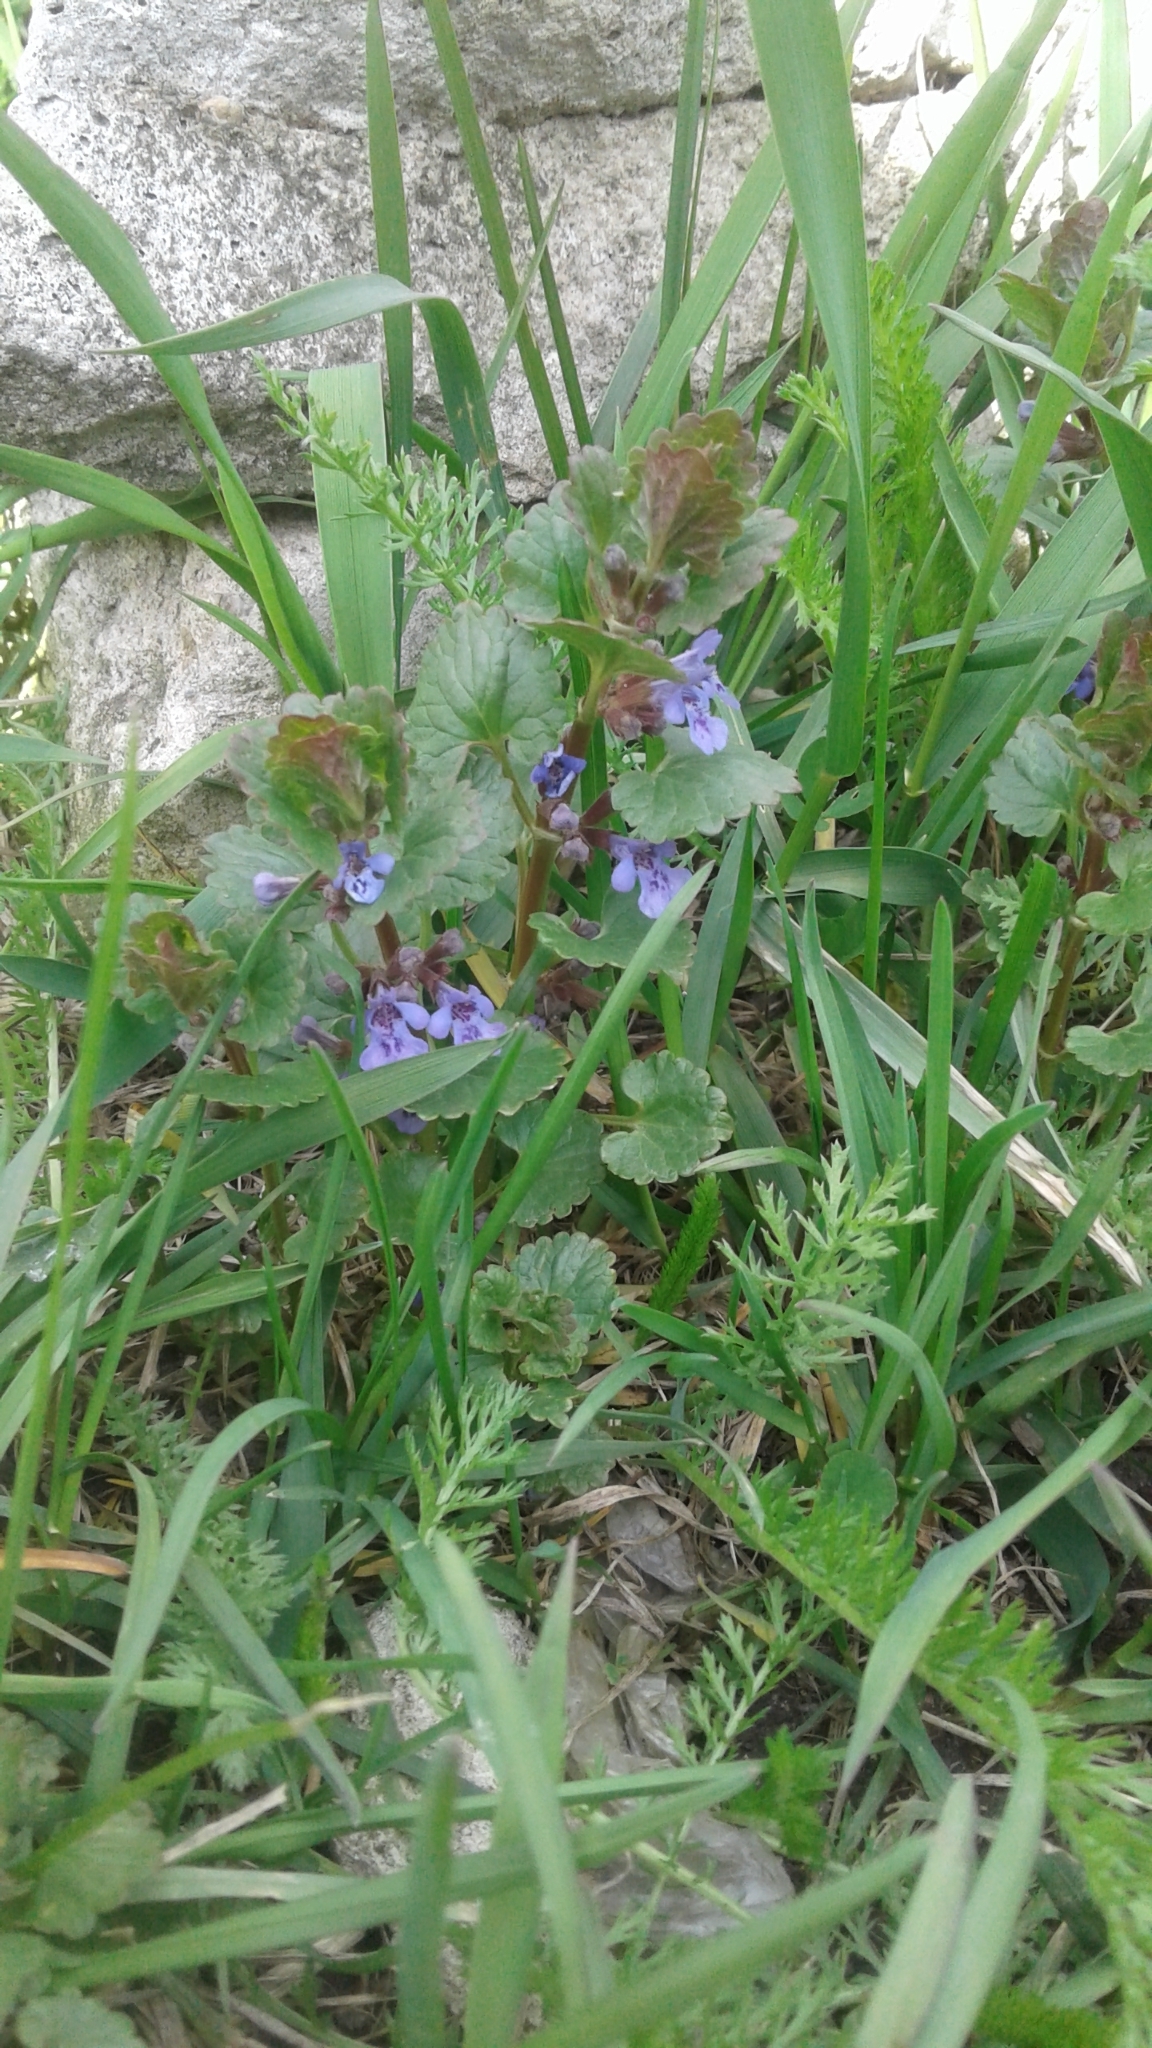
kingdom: Plantae
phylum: Tracheophyta
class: Magnoliopsida
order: Lamiales
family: Lamiaceae
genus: Glechoma
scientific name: Glechoma hederacea
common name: Ground ivy
